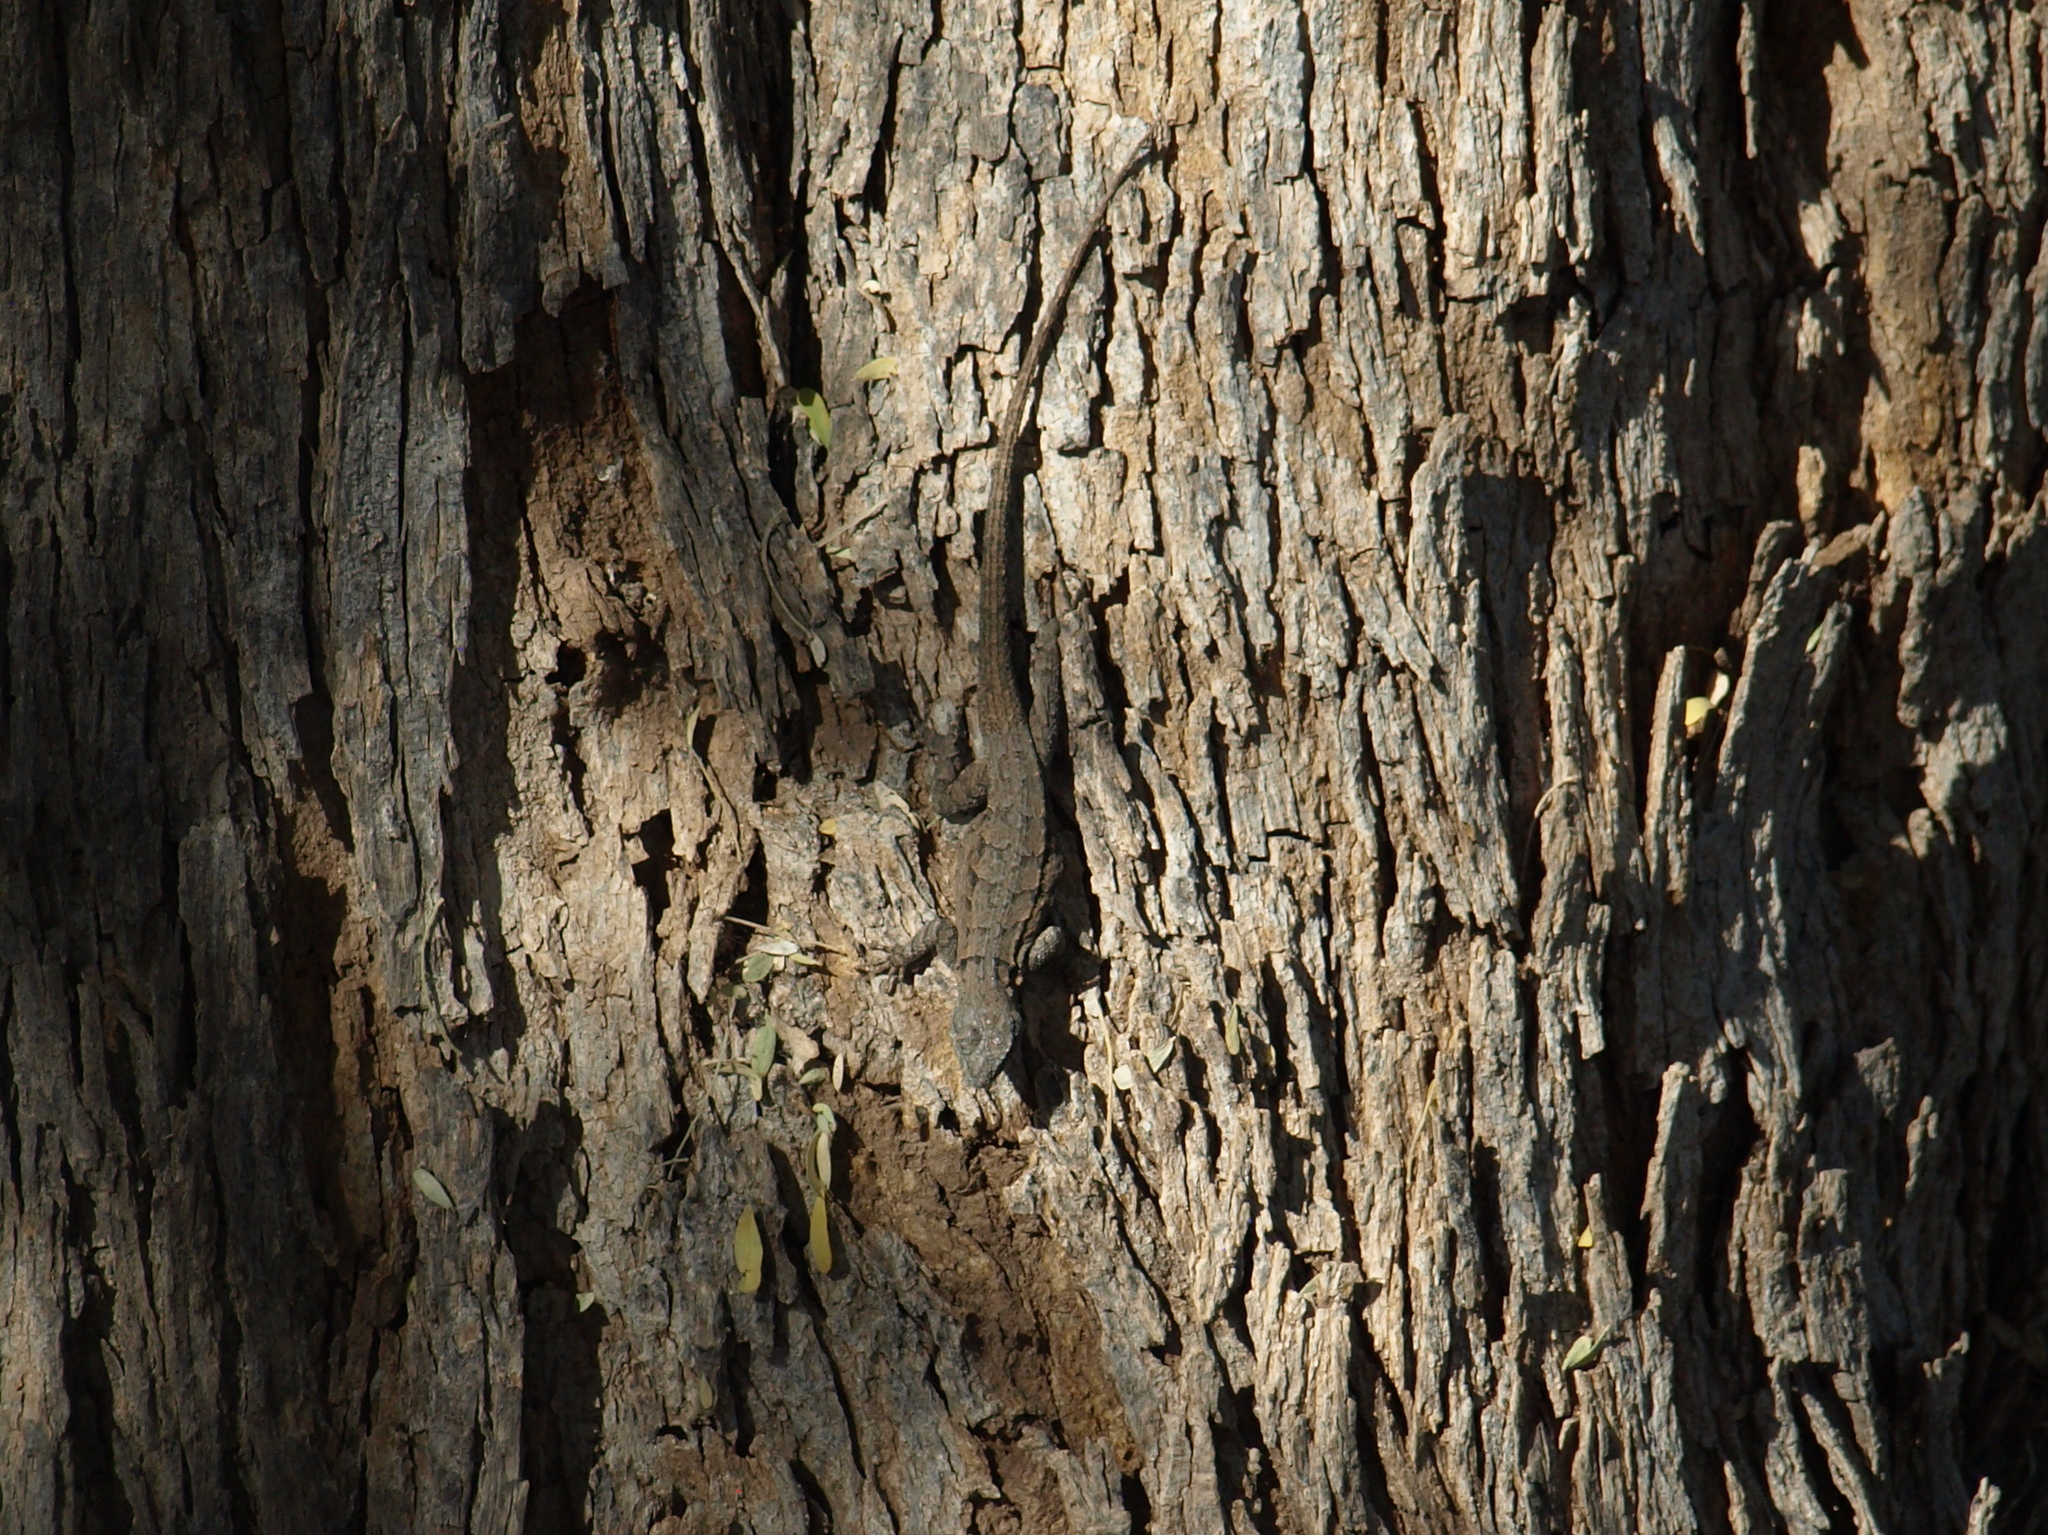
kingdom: Animalia
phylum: Chordata
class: Squamata
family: Phrynosomatidae
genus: Urosaurus
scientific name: Urosaurus ornatus
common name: Ornate tree lizard
